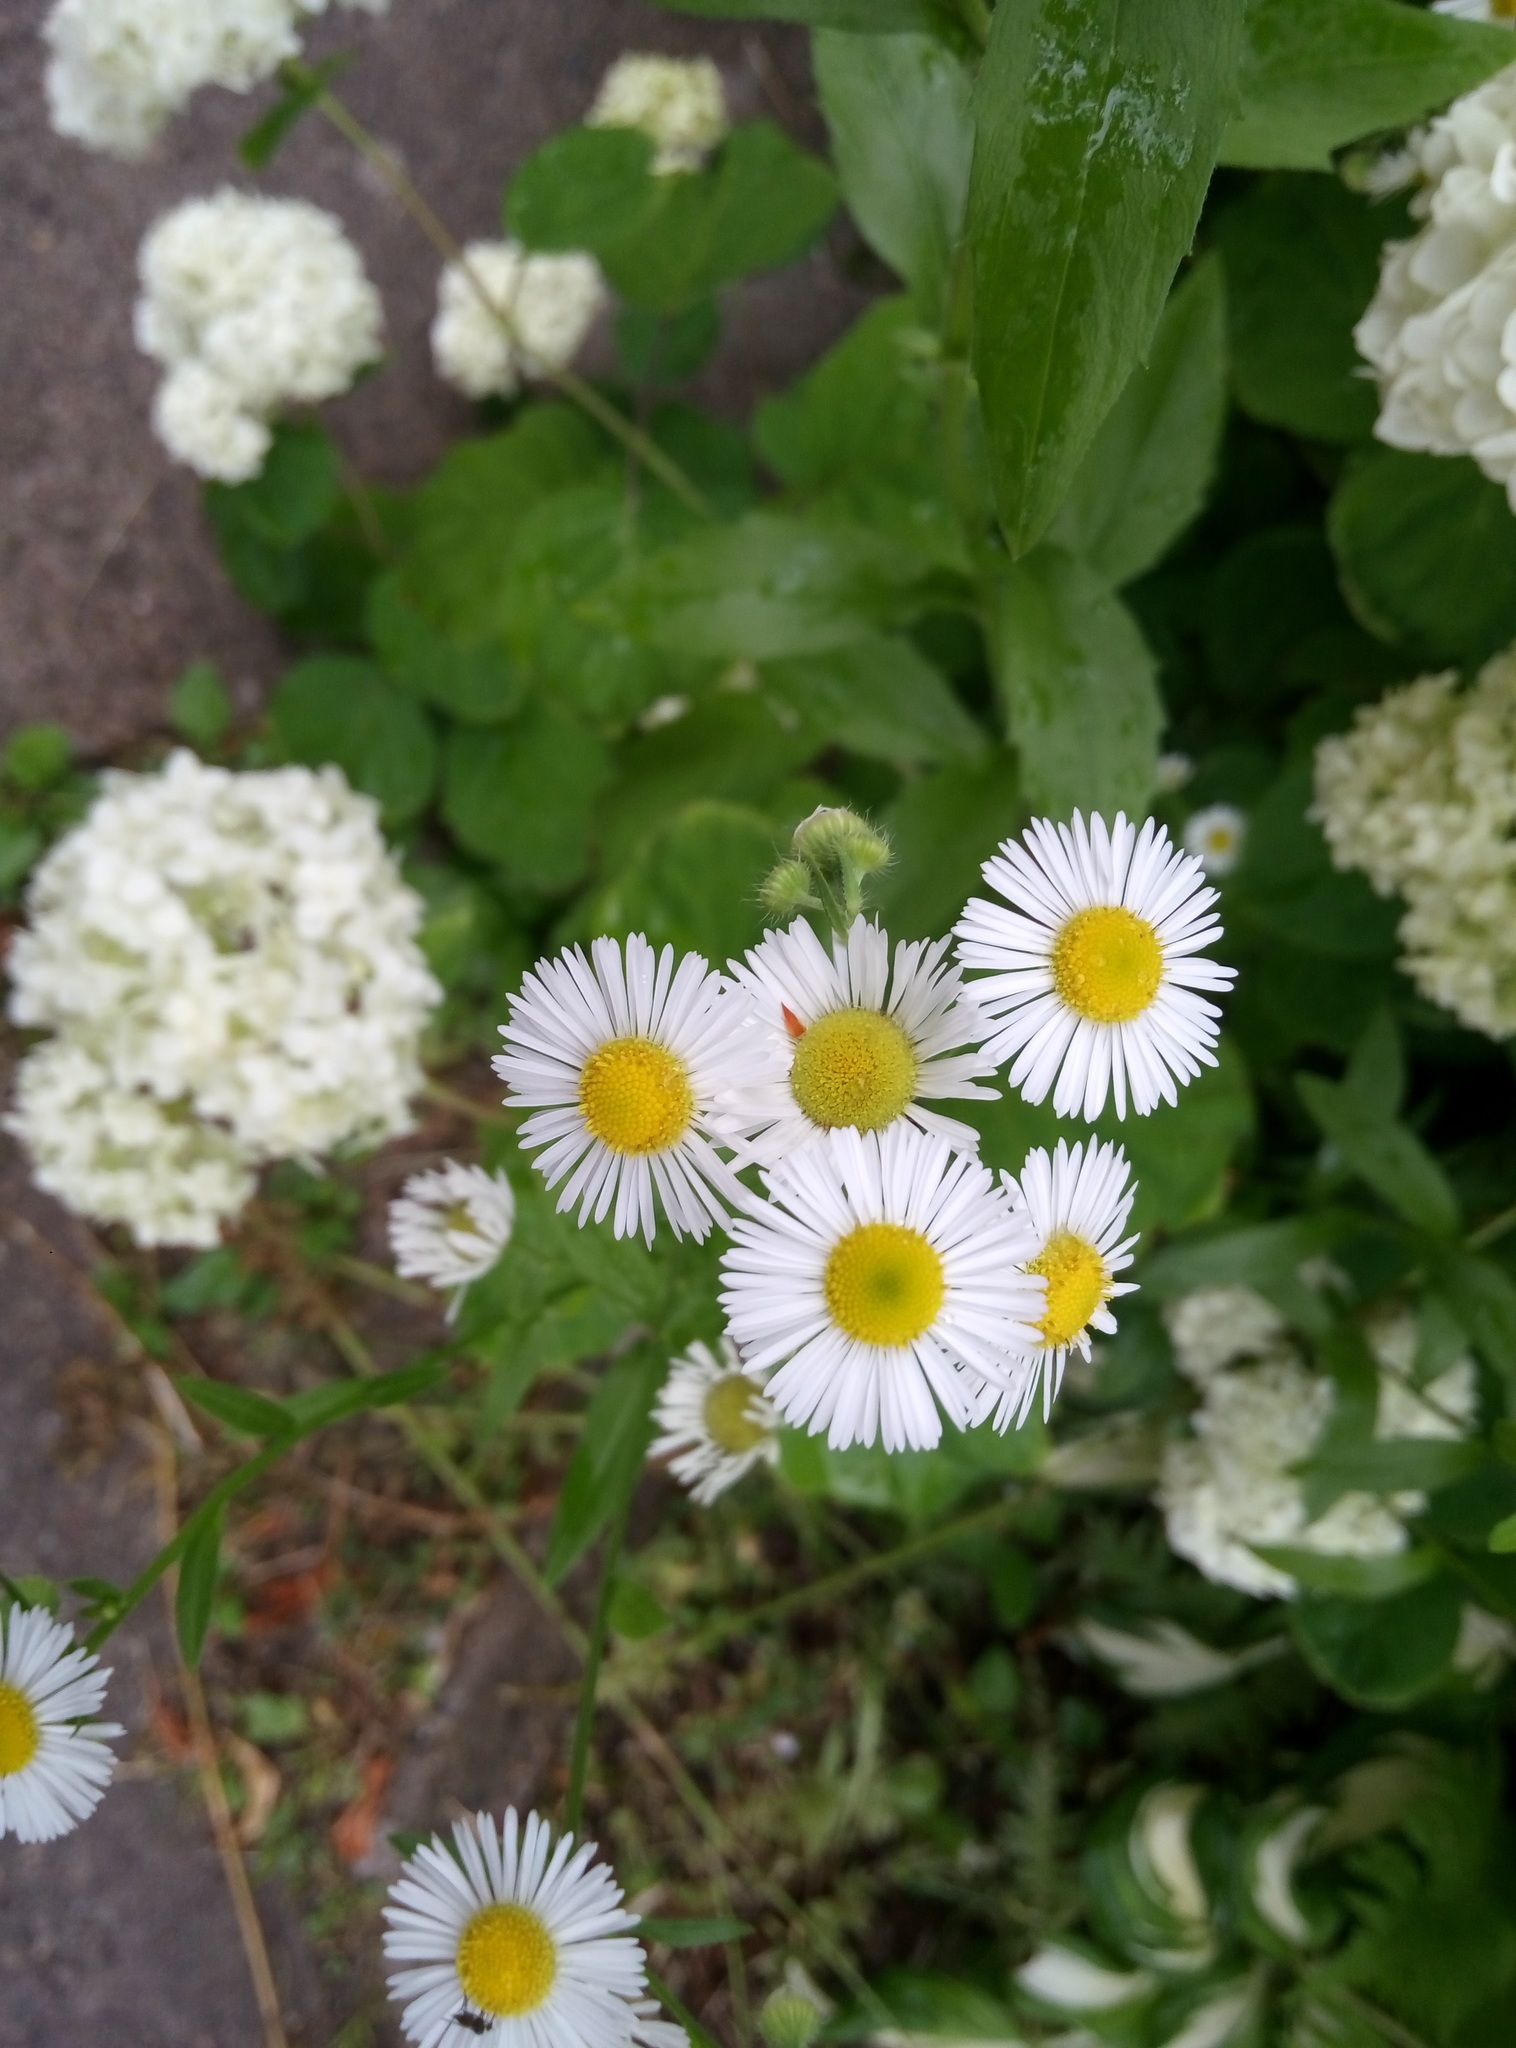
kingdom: Plantae
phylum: Tracheophyta
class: Magnoliopsida
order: Asterales
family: Asteraceae
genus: Erigeron
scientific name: Erigeron annuus
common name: Tall fleabane
